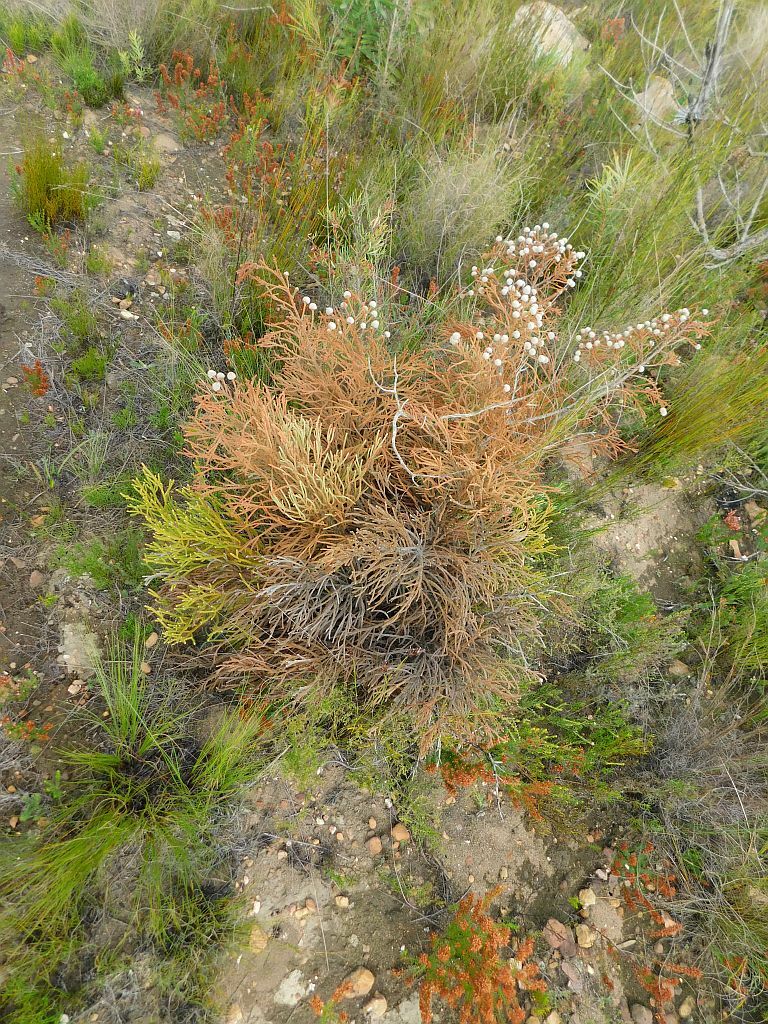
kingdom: Plantae
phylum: Tracheophyta
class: Magnoliopsida
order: Bruniales
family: Bruniaceae
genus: Brunia
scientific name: Brunia noduliflora
